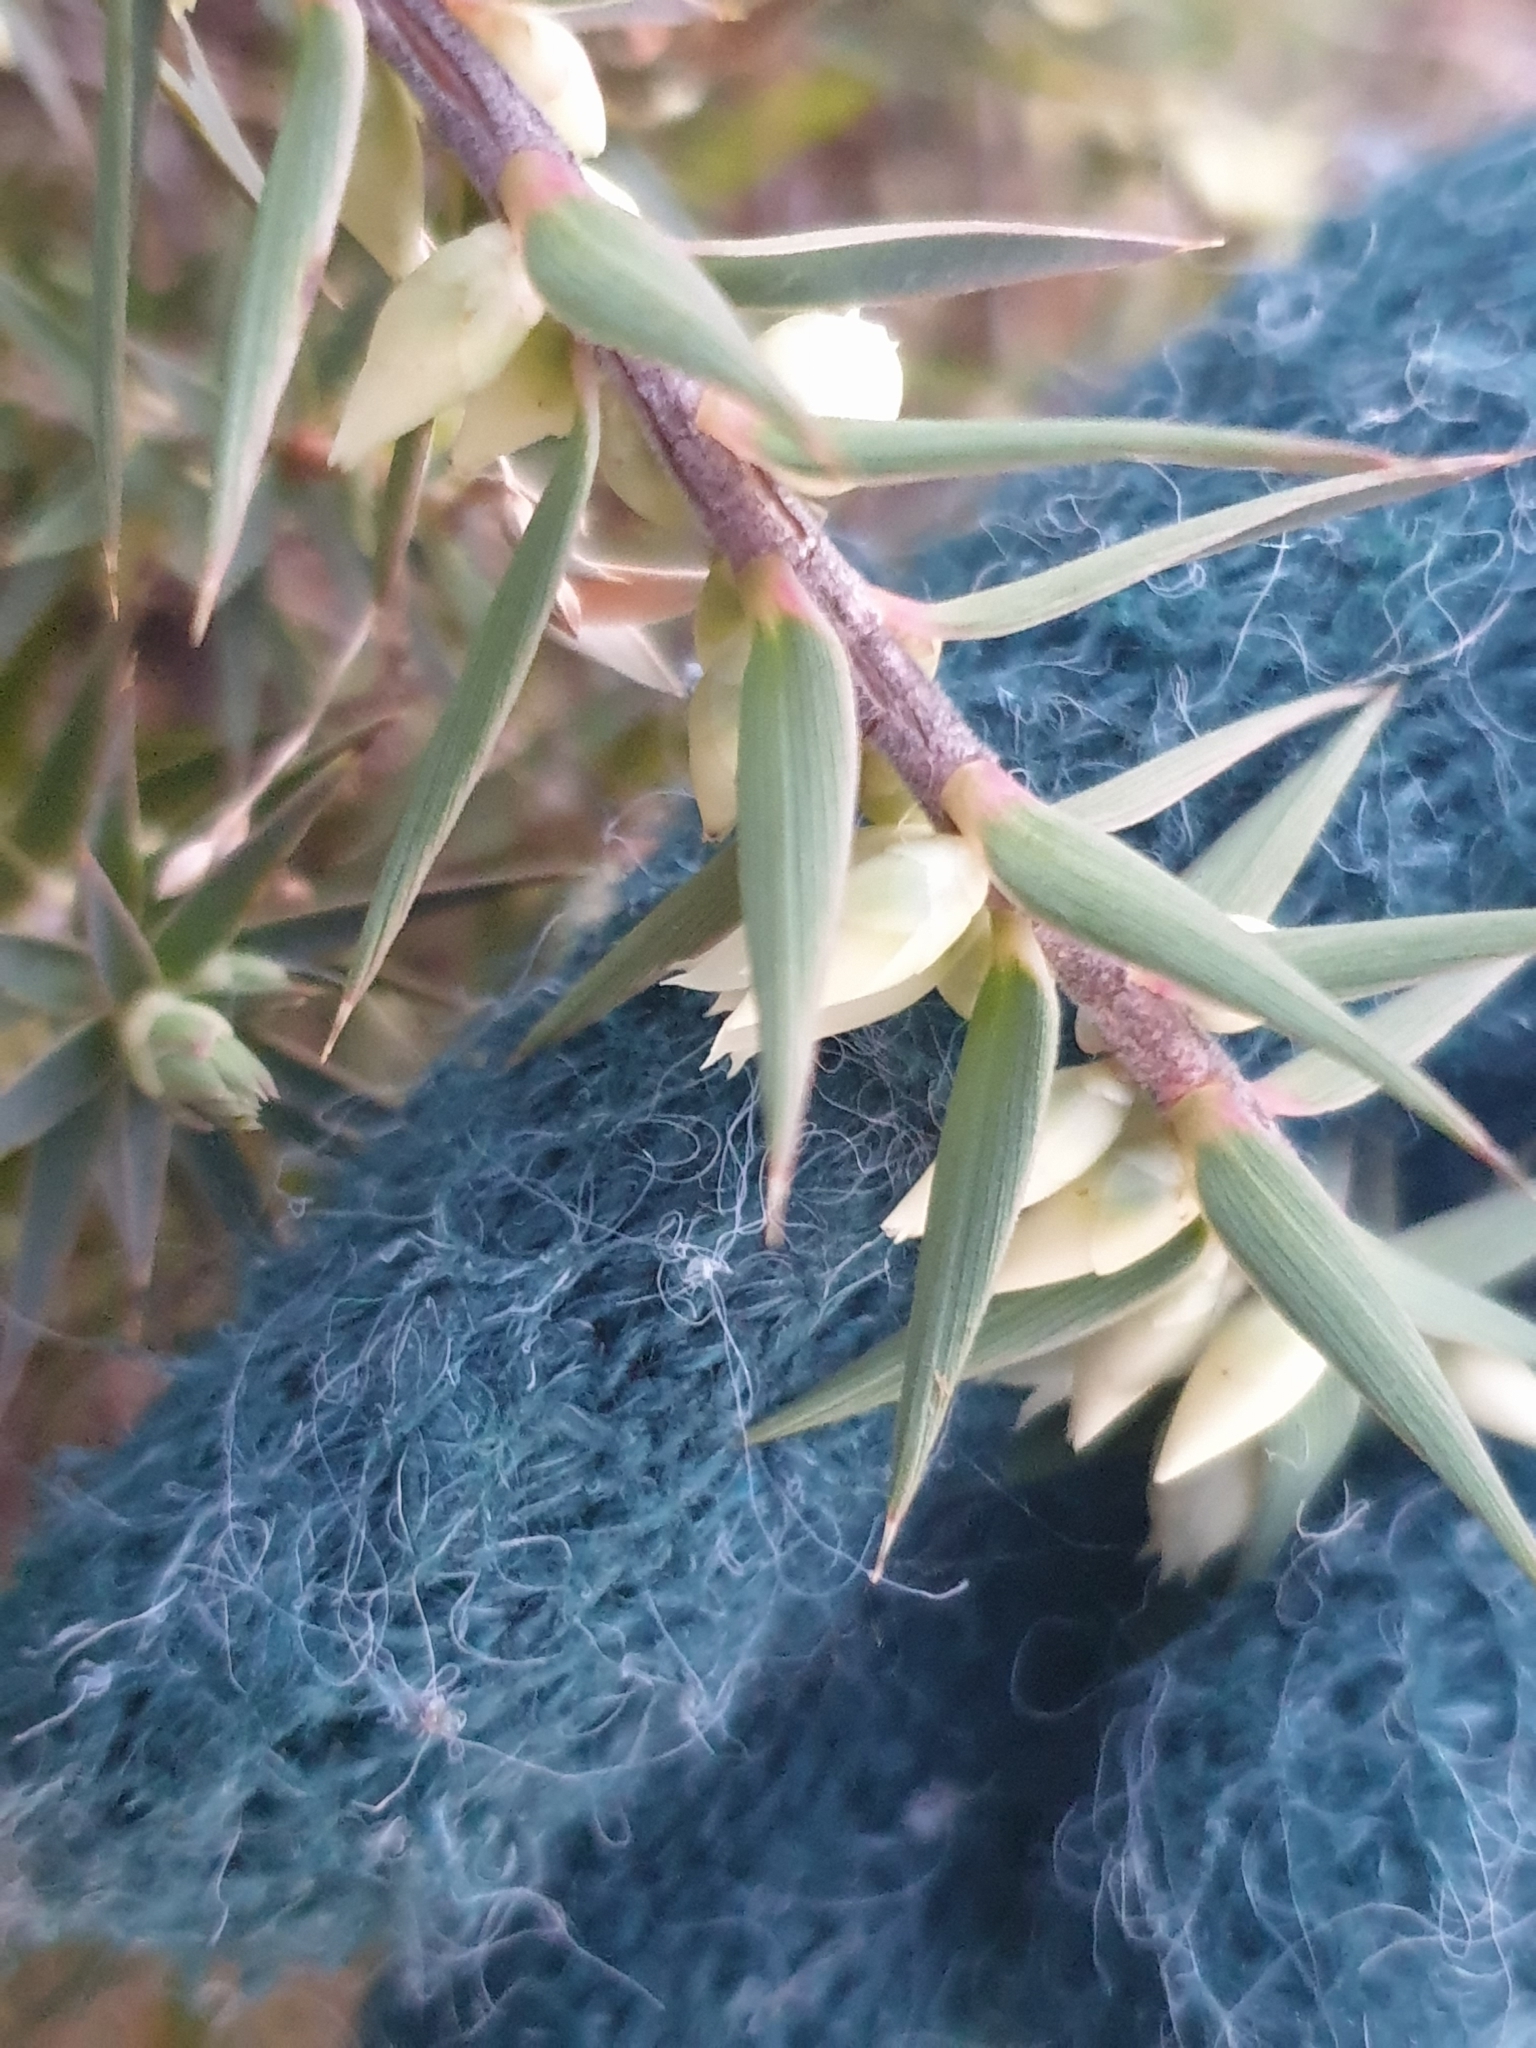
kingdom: Plantae
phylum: Tracheophyta
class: Magnoliopsida
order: Ericales
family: Ericaceae
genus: Melichrus
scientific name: Melichrus urceolatus
